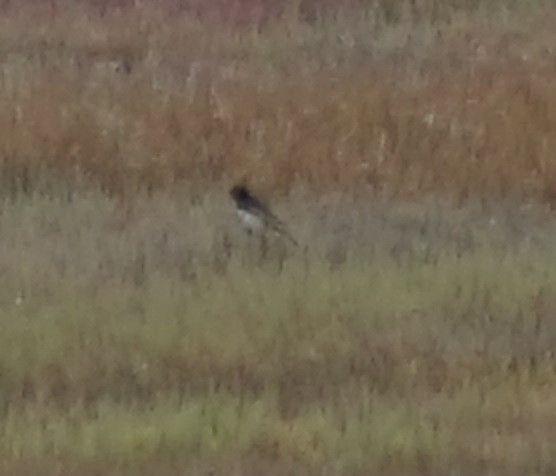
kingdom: Animalia
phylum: Chordata
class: Aves
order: Passeriformes
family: Rhipiduridae
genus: Rhipidura
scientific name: Rhipidura leucophrys
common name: Willie wagtail
